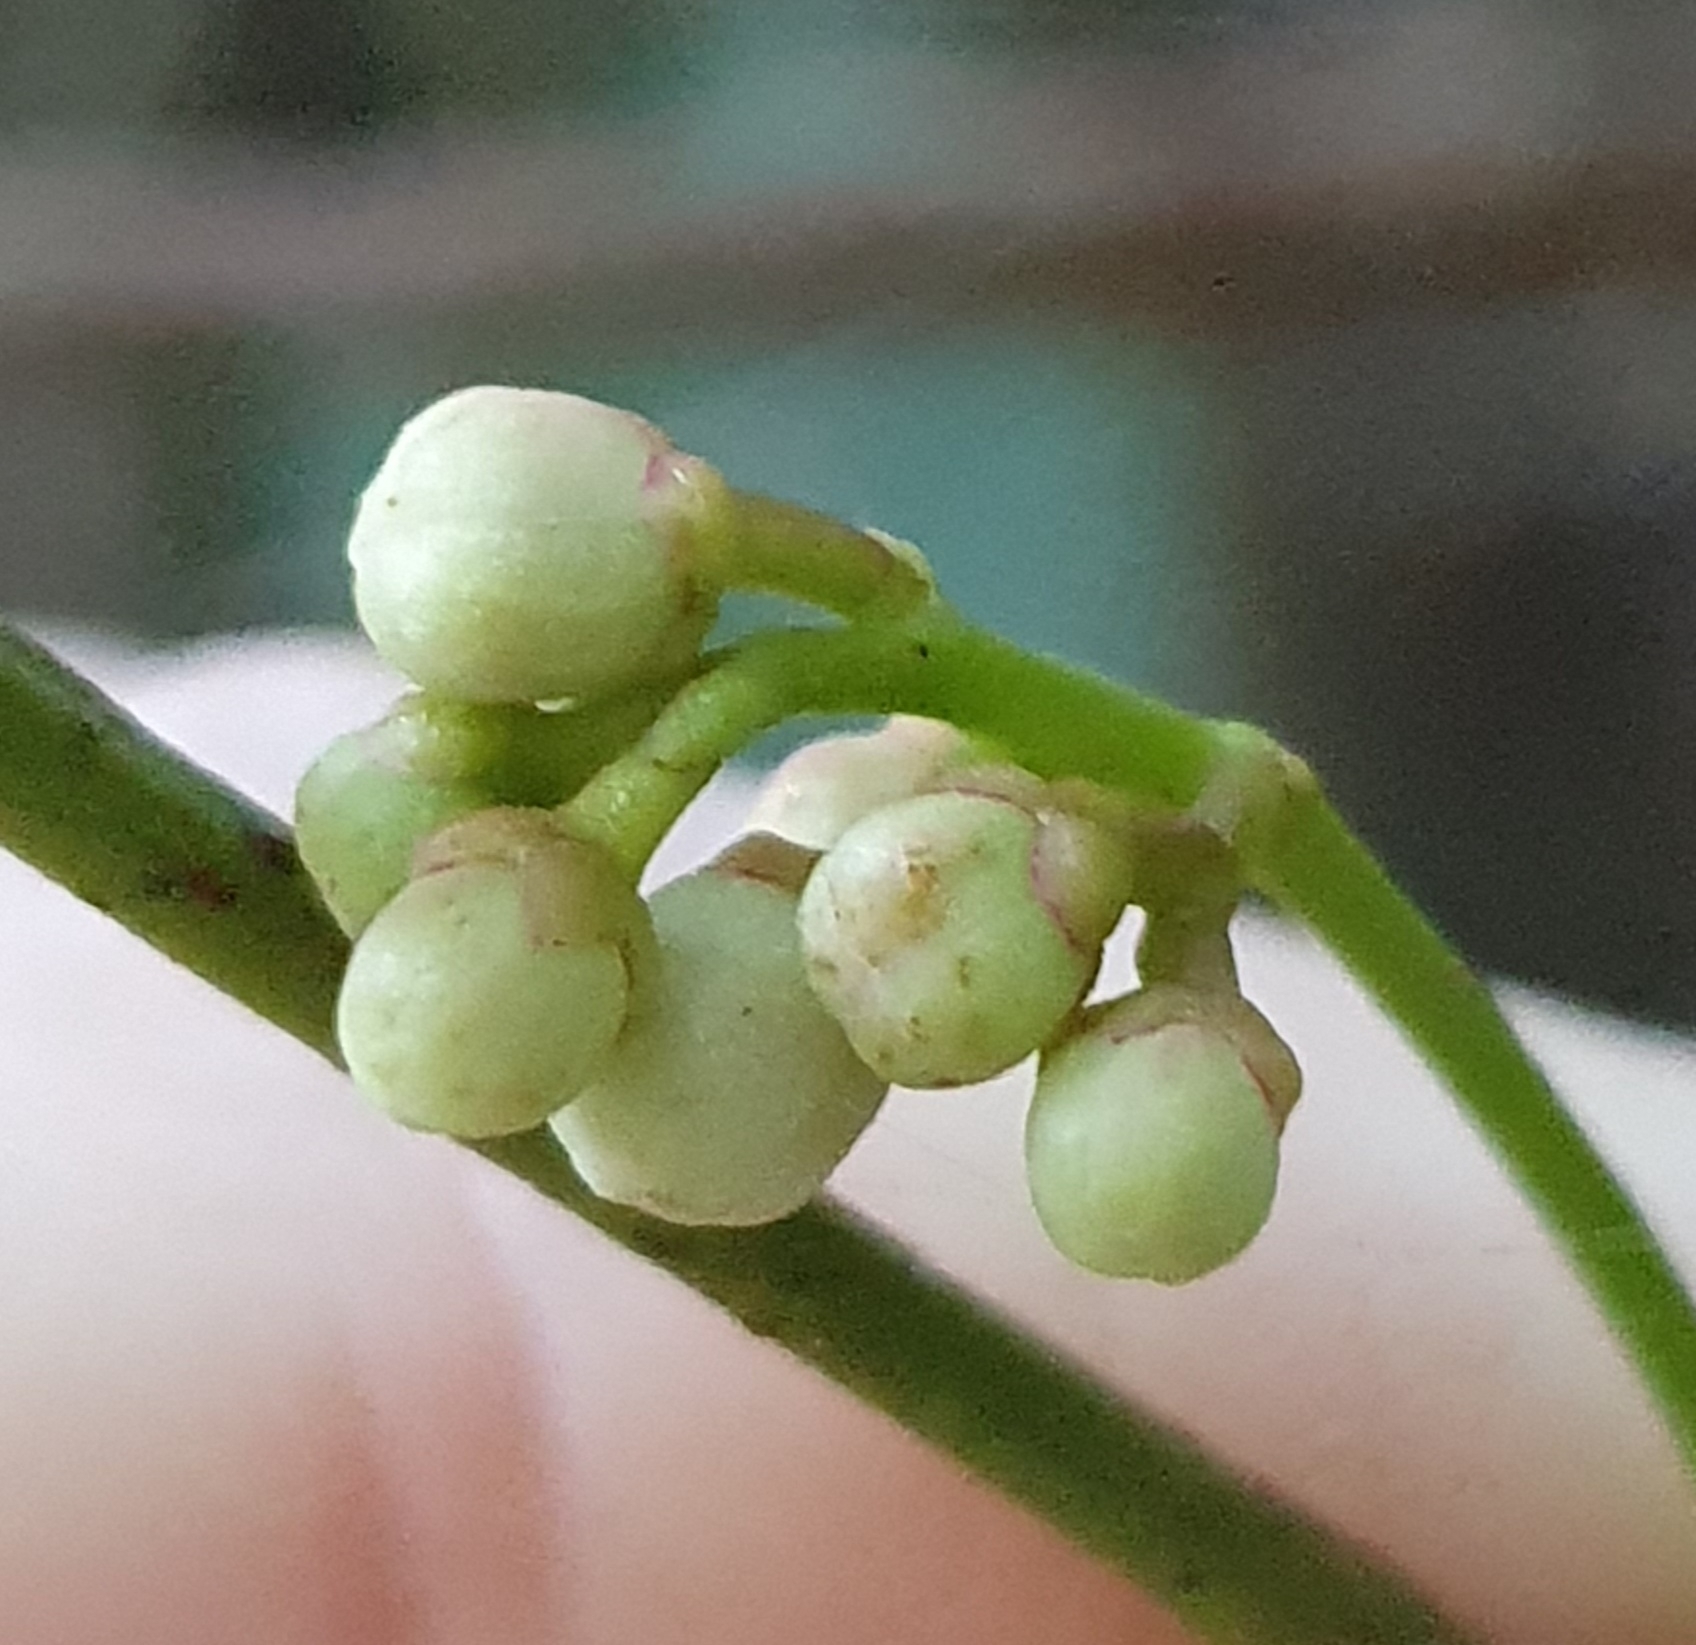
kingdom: Plantae
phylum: Tracheophyta
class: Magnoliopsida
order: Sapindales
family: Meliaceae
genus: Synoum
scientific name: Synoum glandulosum
